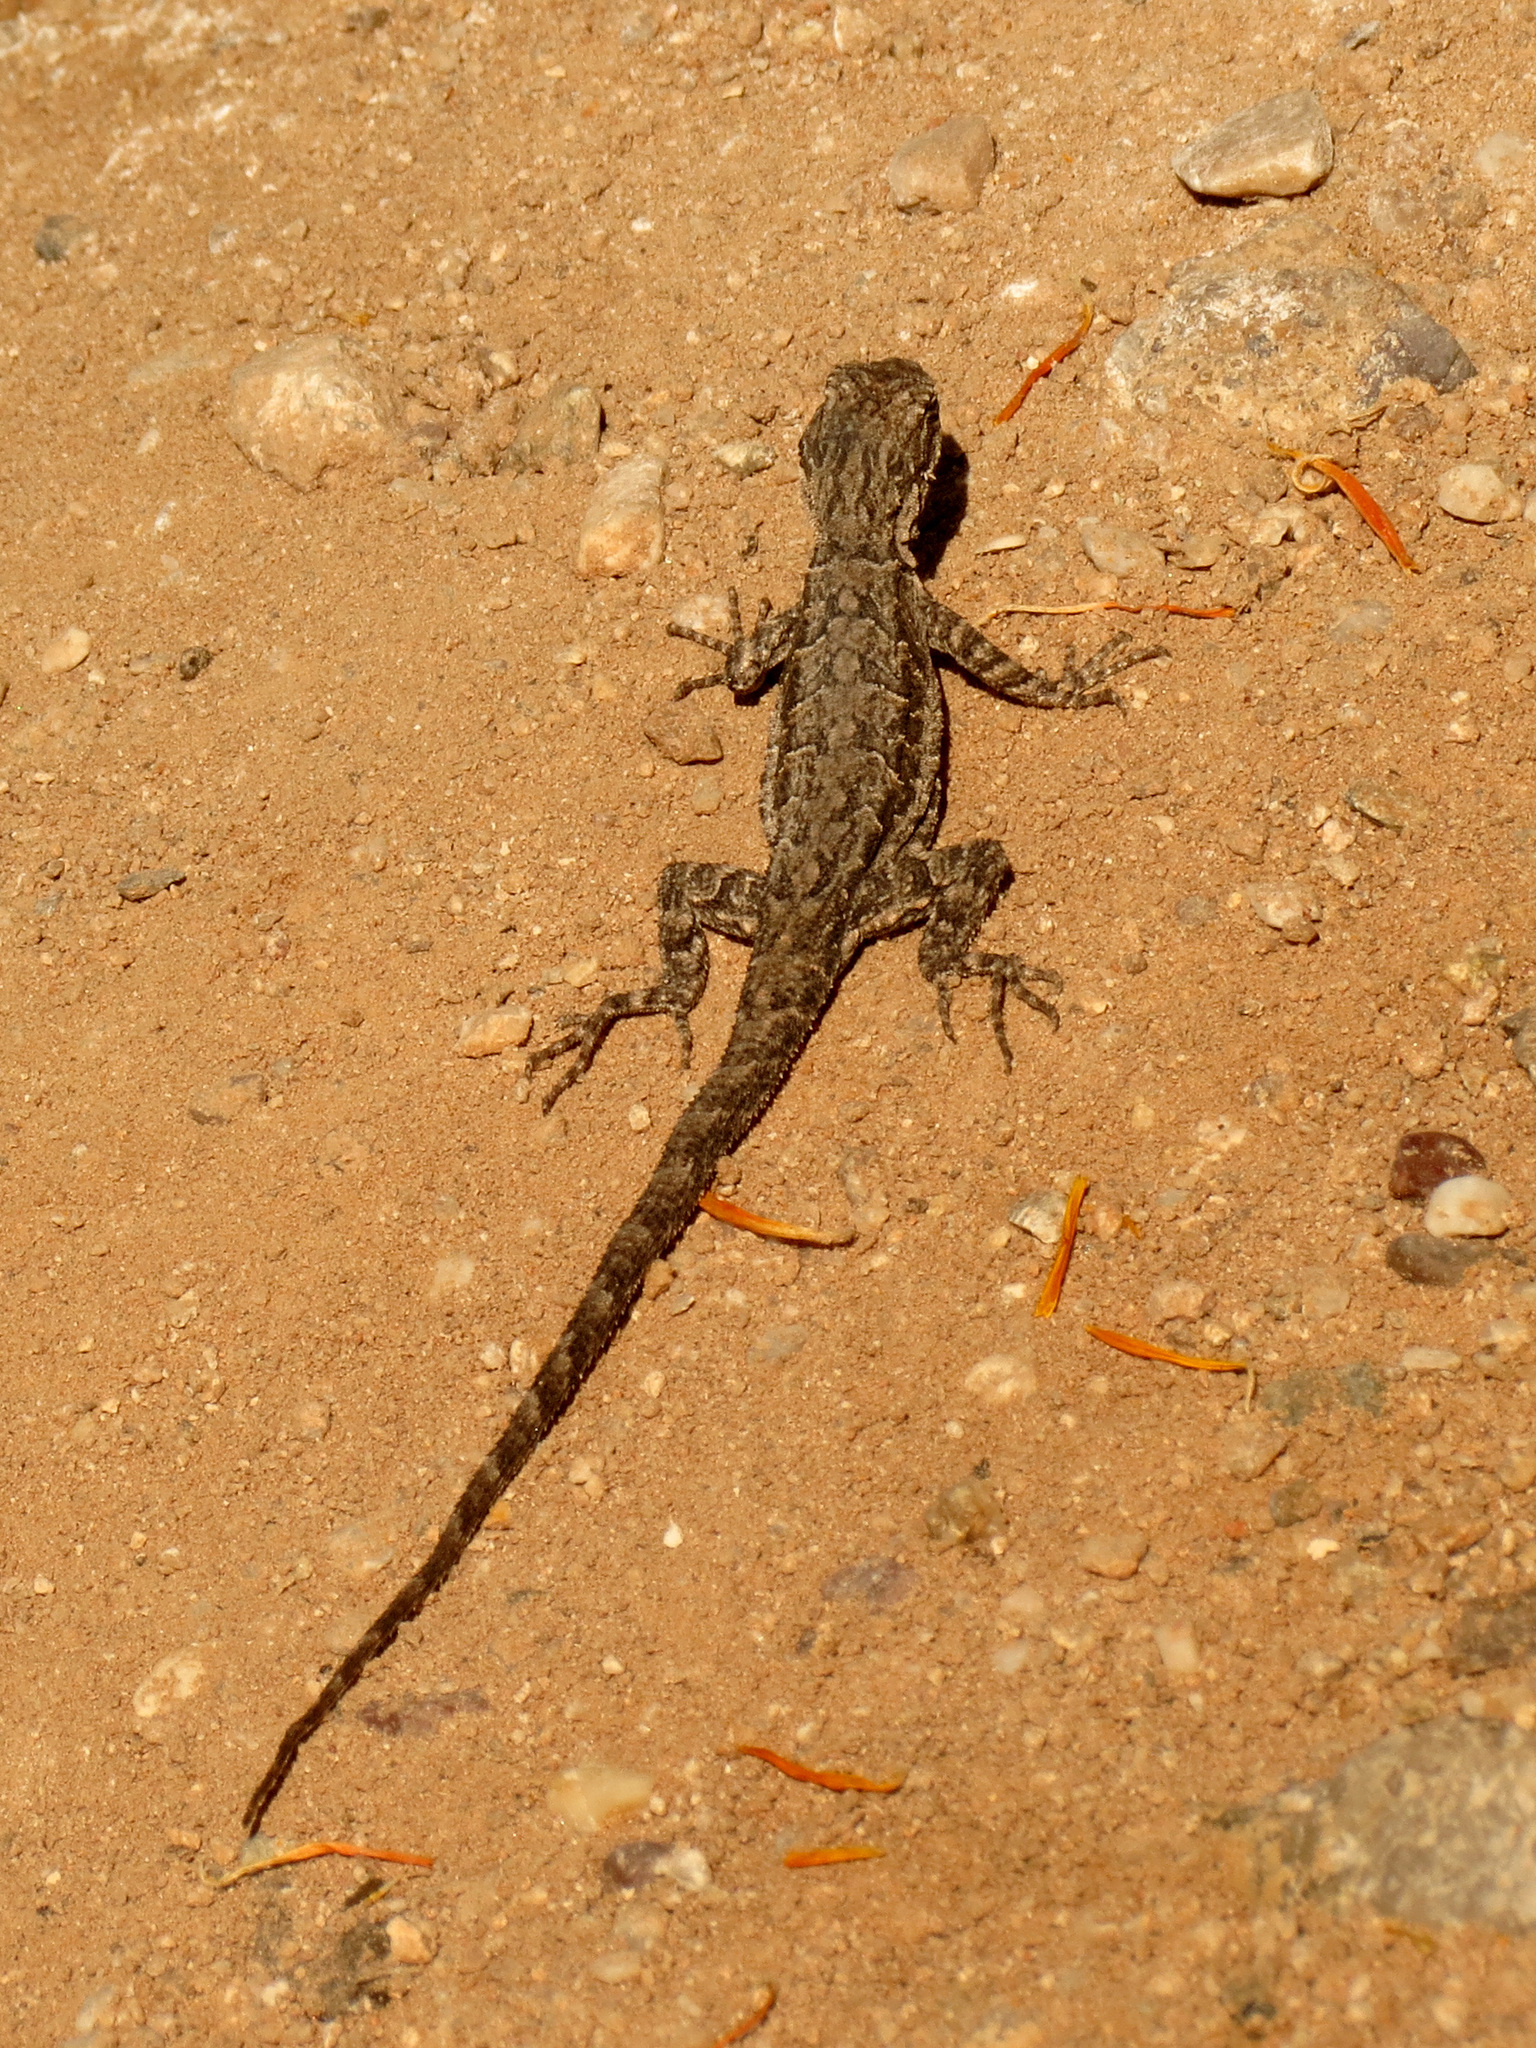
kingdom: Animalia
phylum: Chordata
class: Squamata
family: Phrynosomatidae
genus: Urosaurus
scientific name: Urosaurus ornatus
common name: Ornate tree lizard
